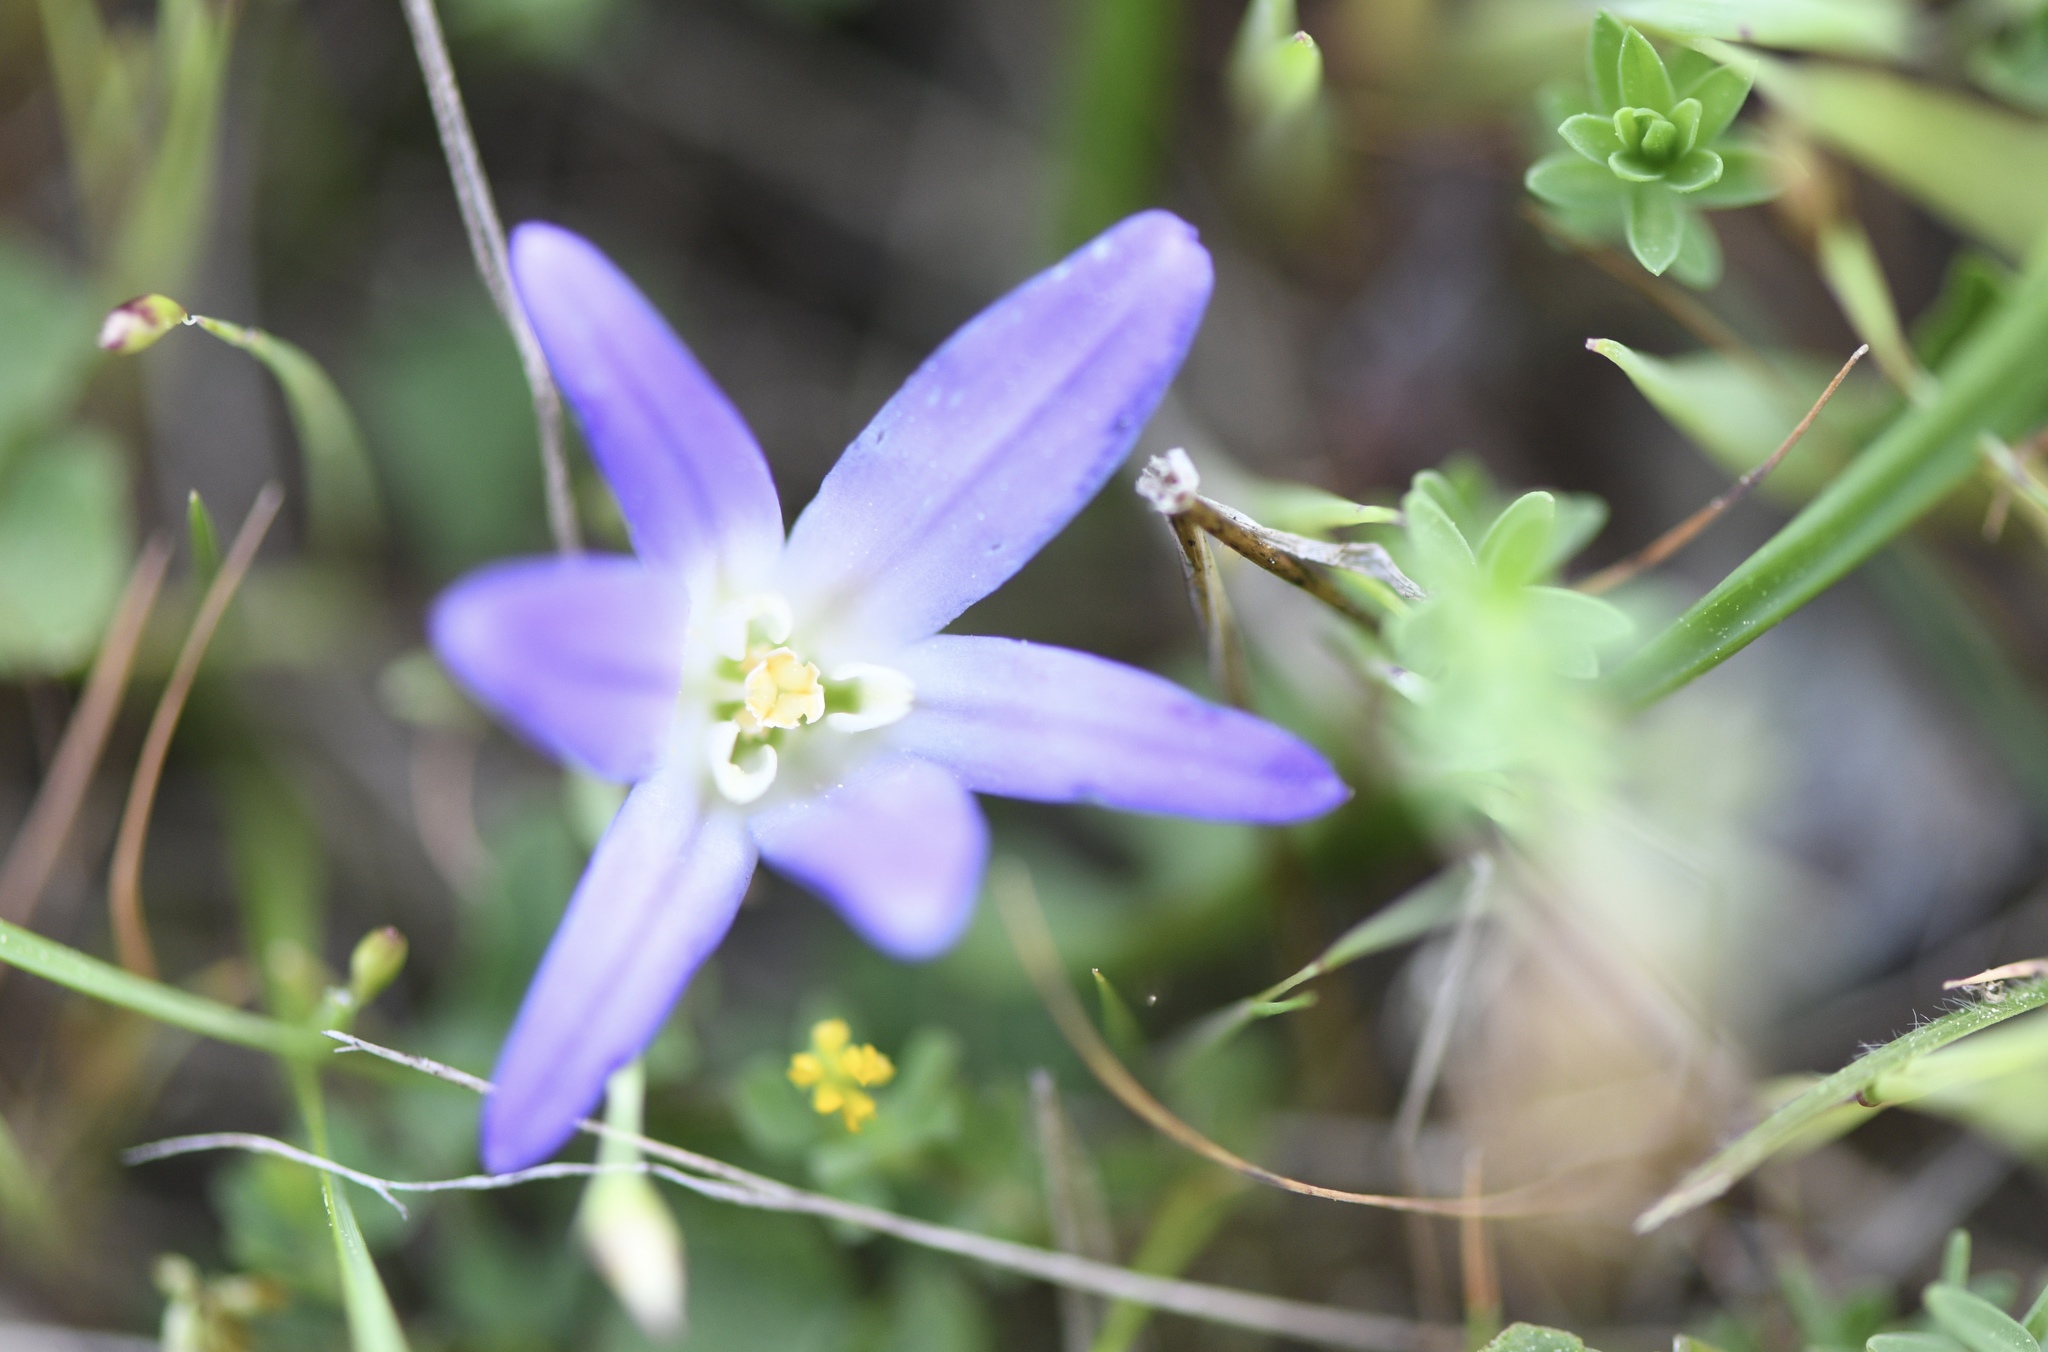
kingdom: Plantae
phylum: Tracheophyta
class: Liliopsida
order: Asparagales
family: Asparagaceae
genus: Brodiaea
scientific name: Brodiaea terrestris
